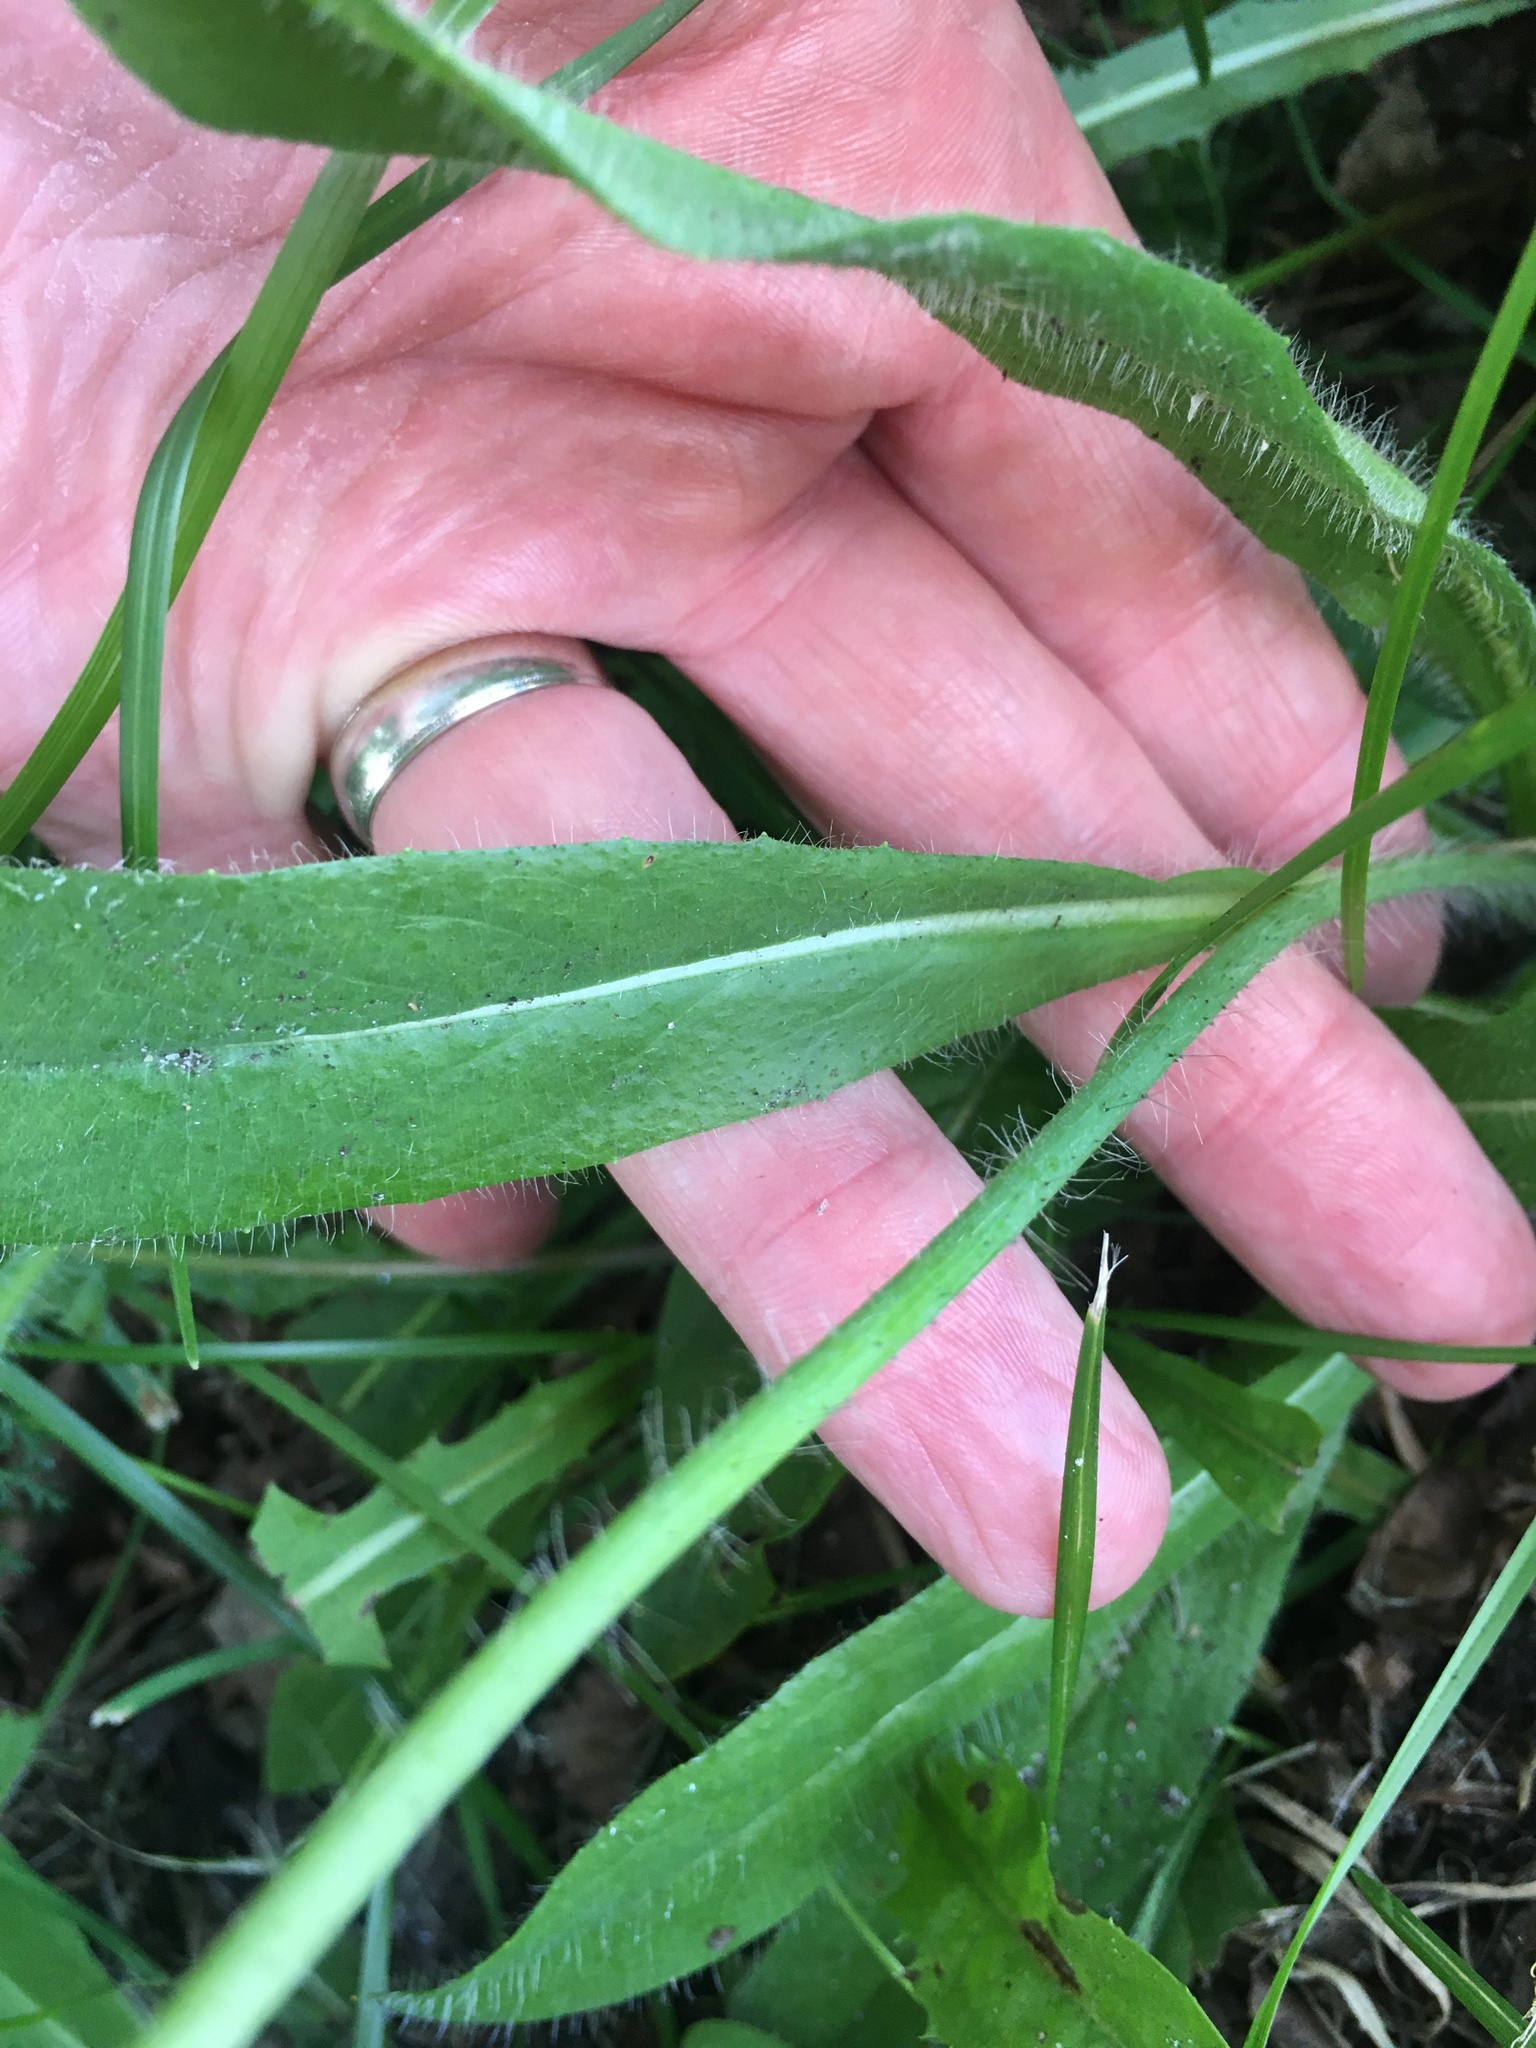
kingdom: Plantae
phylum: Tracheophyta
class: Magnoliopsida
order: Asterales
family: Asteraceae
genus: Pilosella
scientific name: Pilosella aurantiaca
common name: Fox-and-cubs
